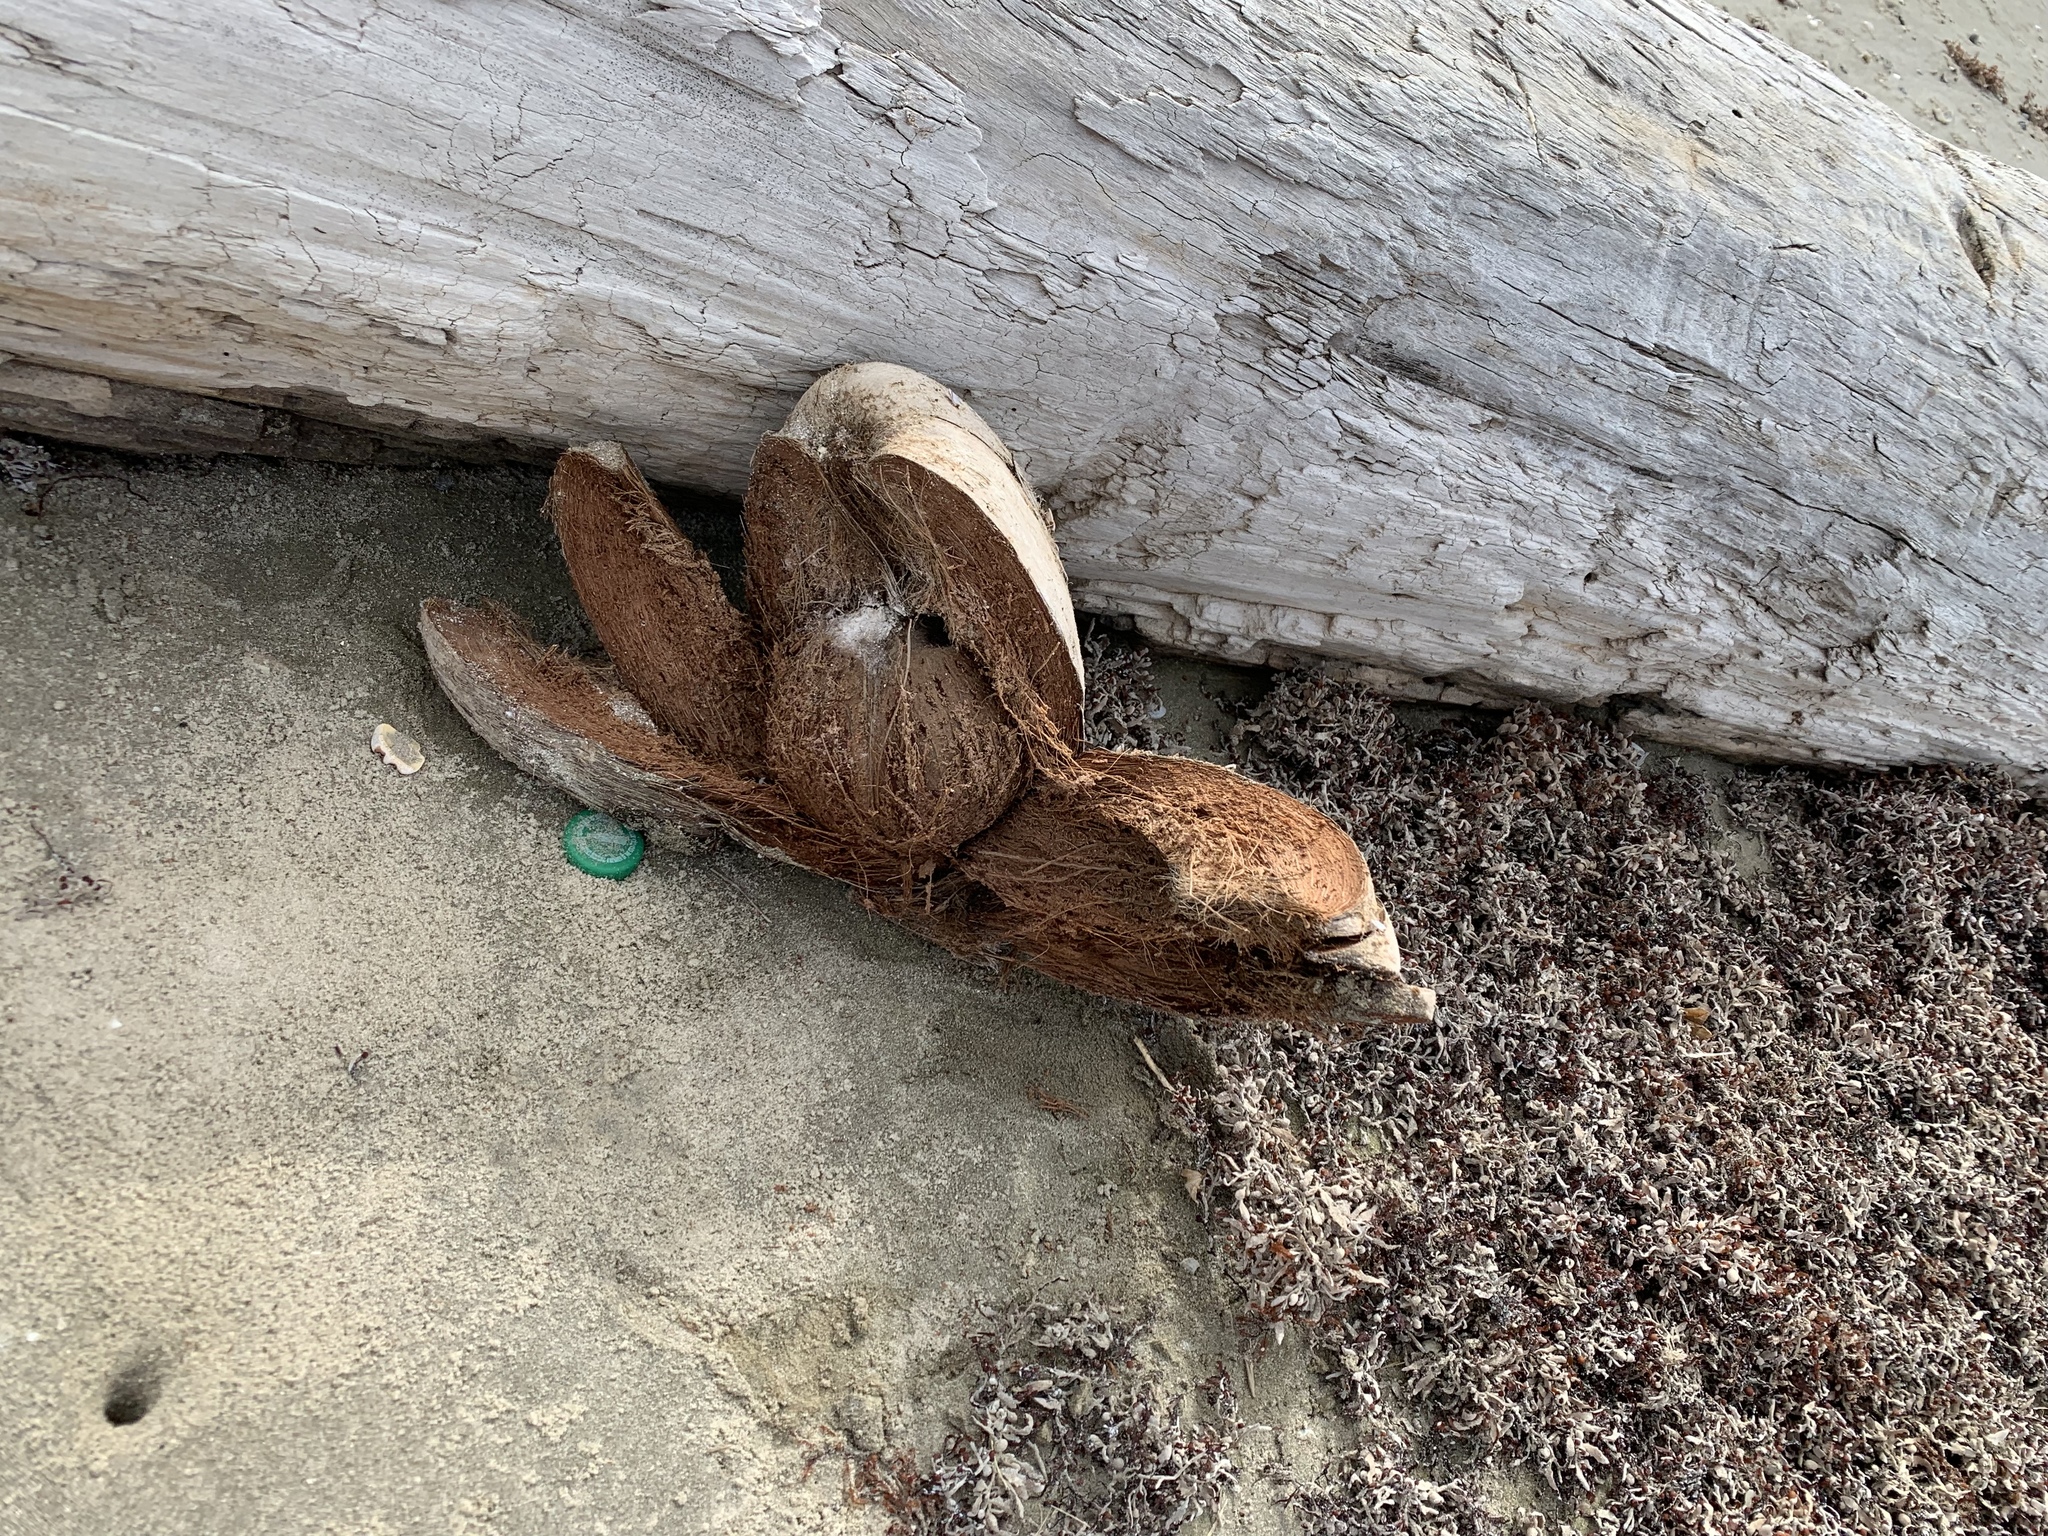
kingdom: Plantae
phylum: Tracheophyta
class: Liliopsida
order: Arecales
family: Arecaceae
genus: Cocos
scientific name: Cocos nucifera
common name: Coconut palm
